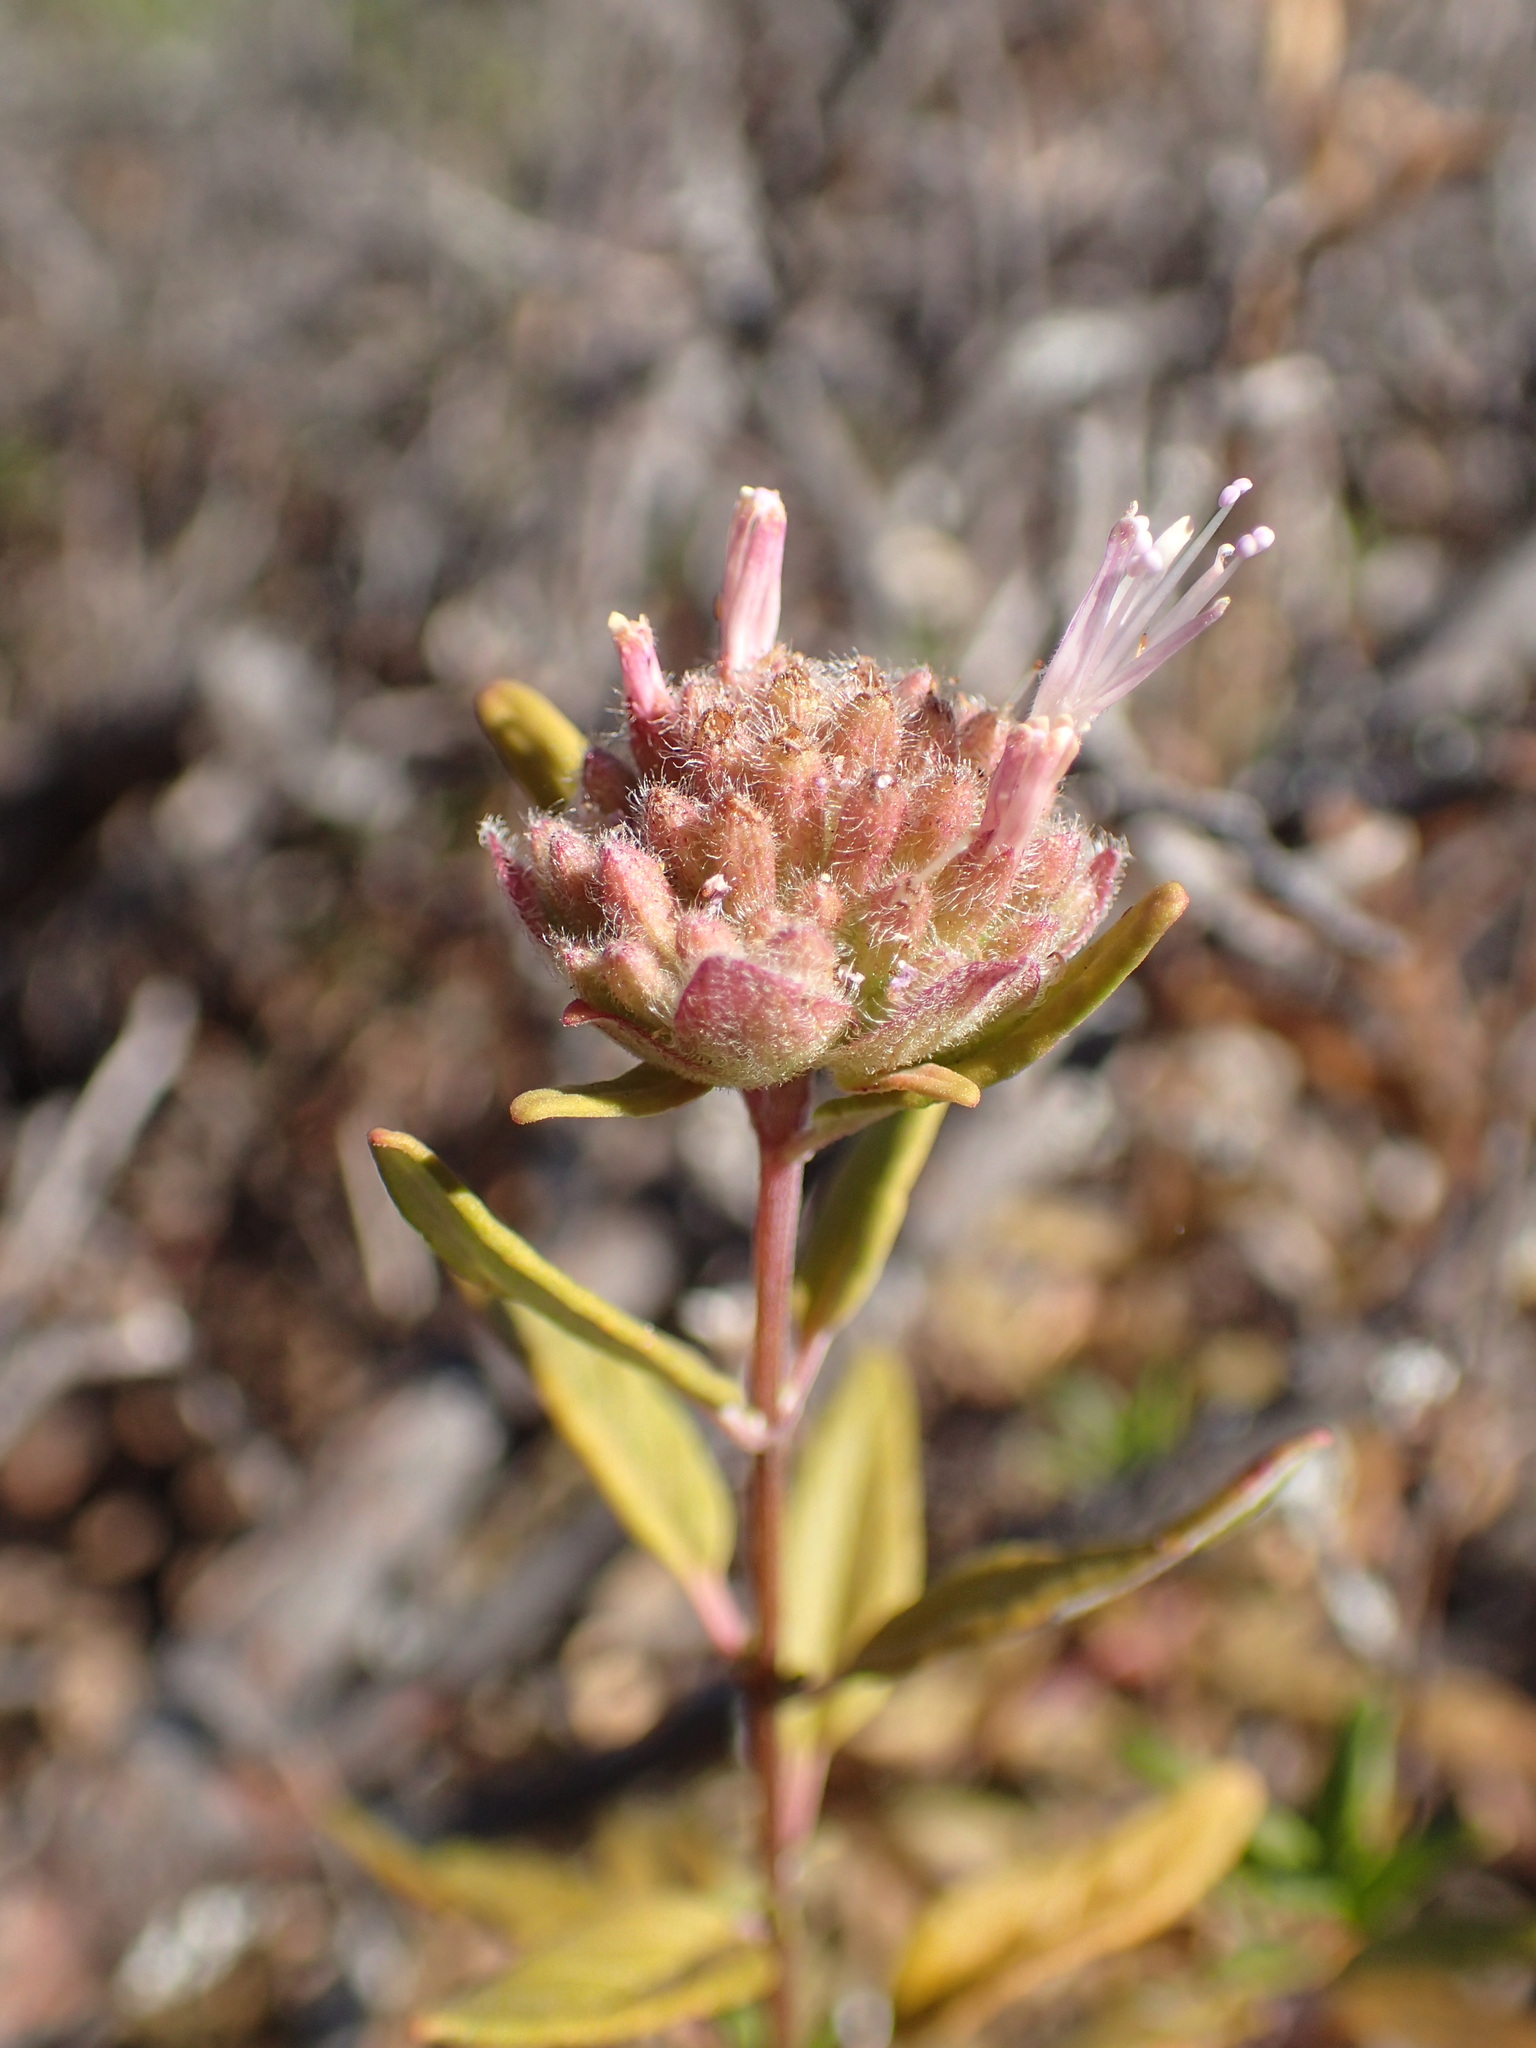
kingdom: Plantae
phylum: Tracheophyta
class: Magnoliopsida
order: Lamiales
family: Lamiaceae
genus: Monardella
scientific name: Monardella hypoleuca
